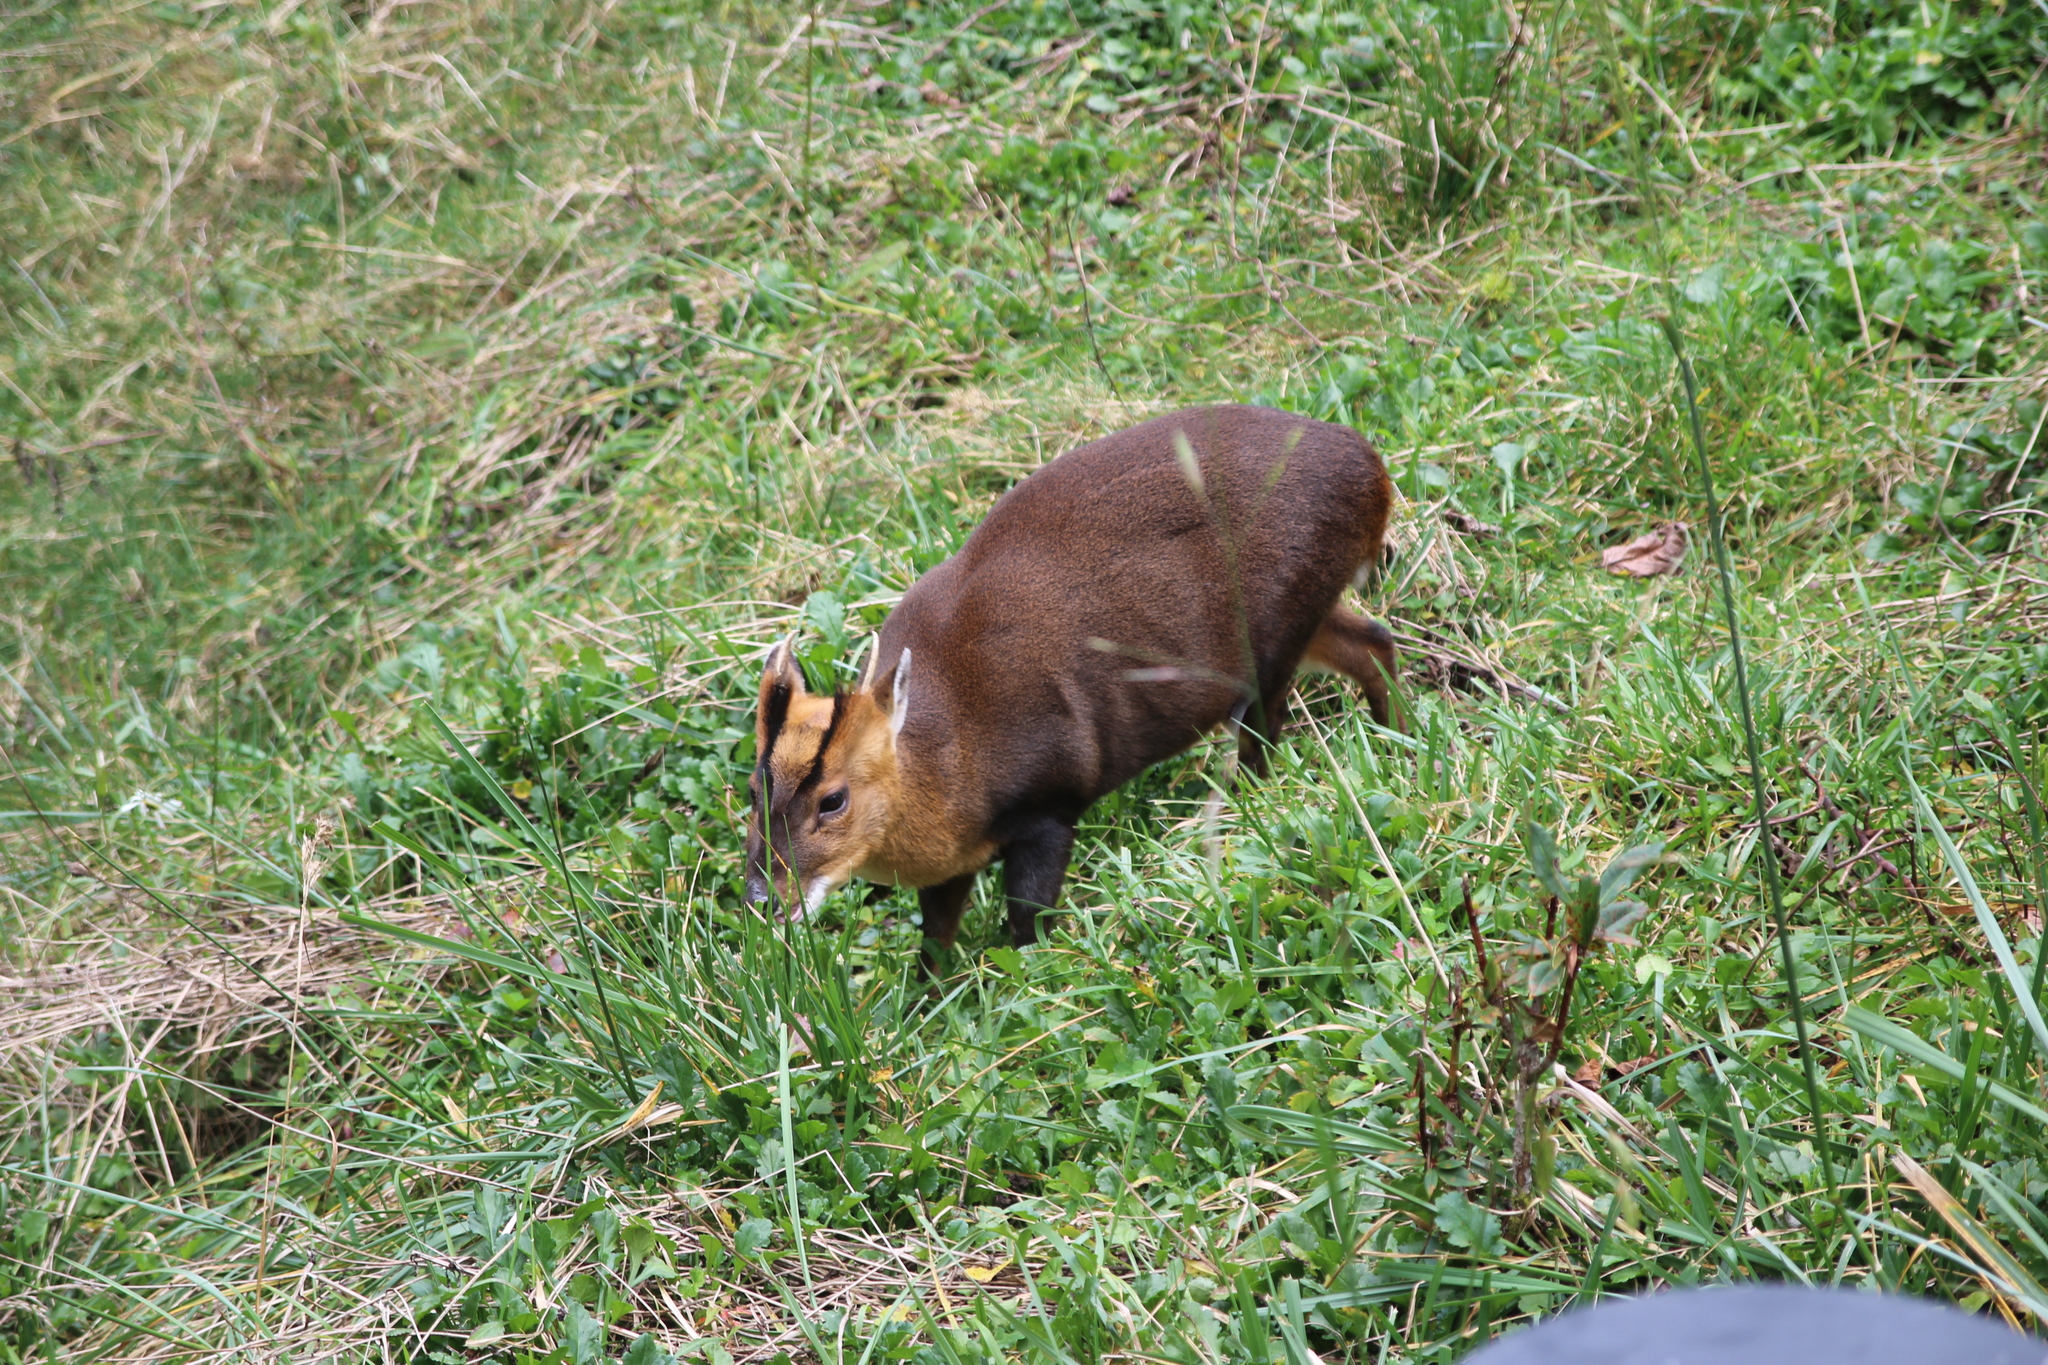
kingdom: Animalia
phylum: Chordata
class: Mammalia
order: Artiodactyla
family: Cervidae
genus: Muntiacus
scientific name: Muntiacus reevesi
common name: Reeves' muntjac
